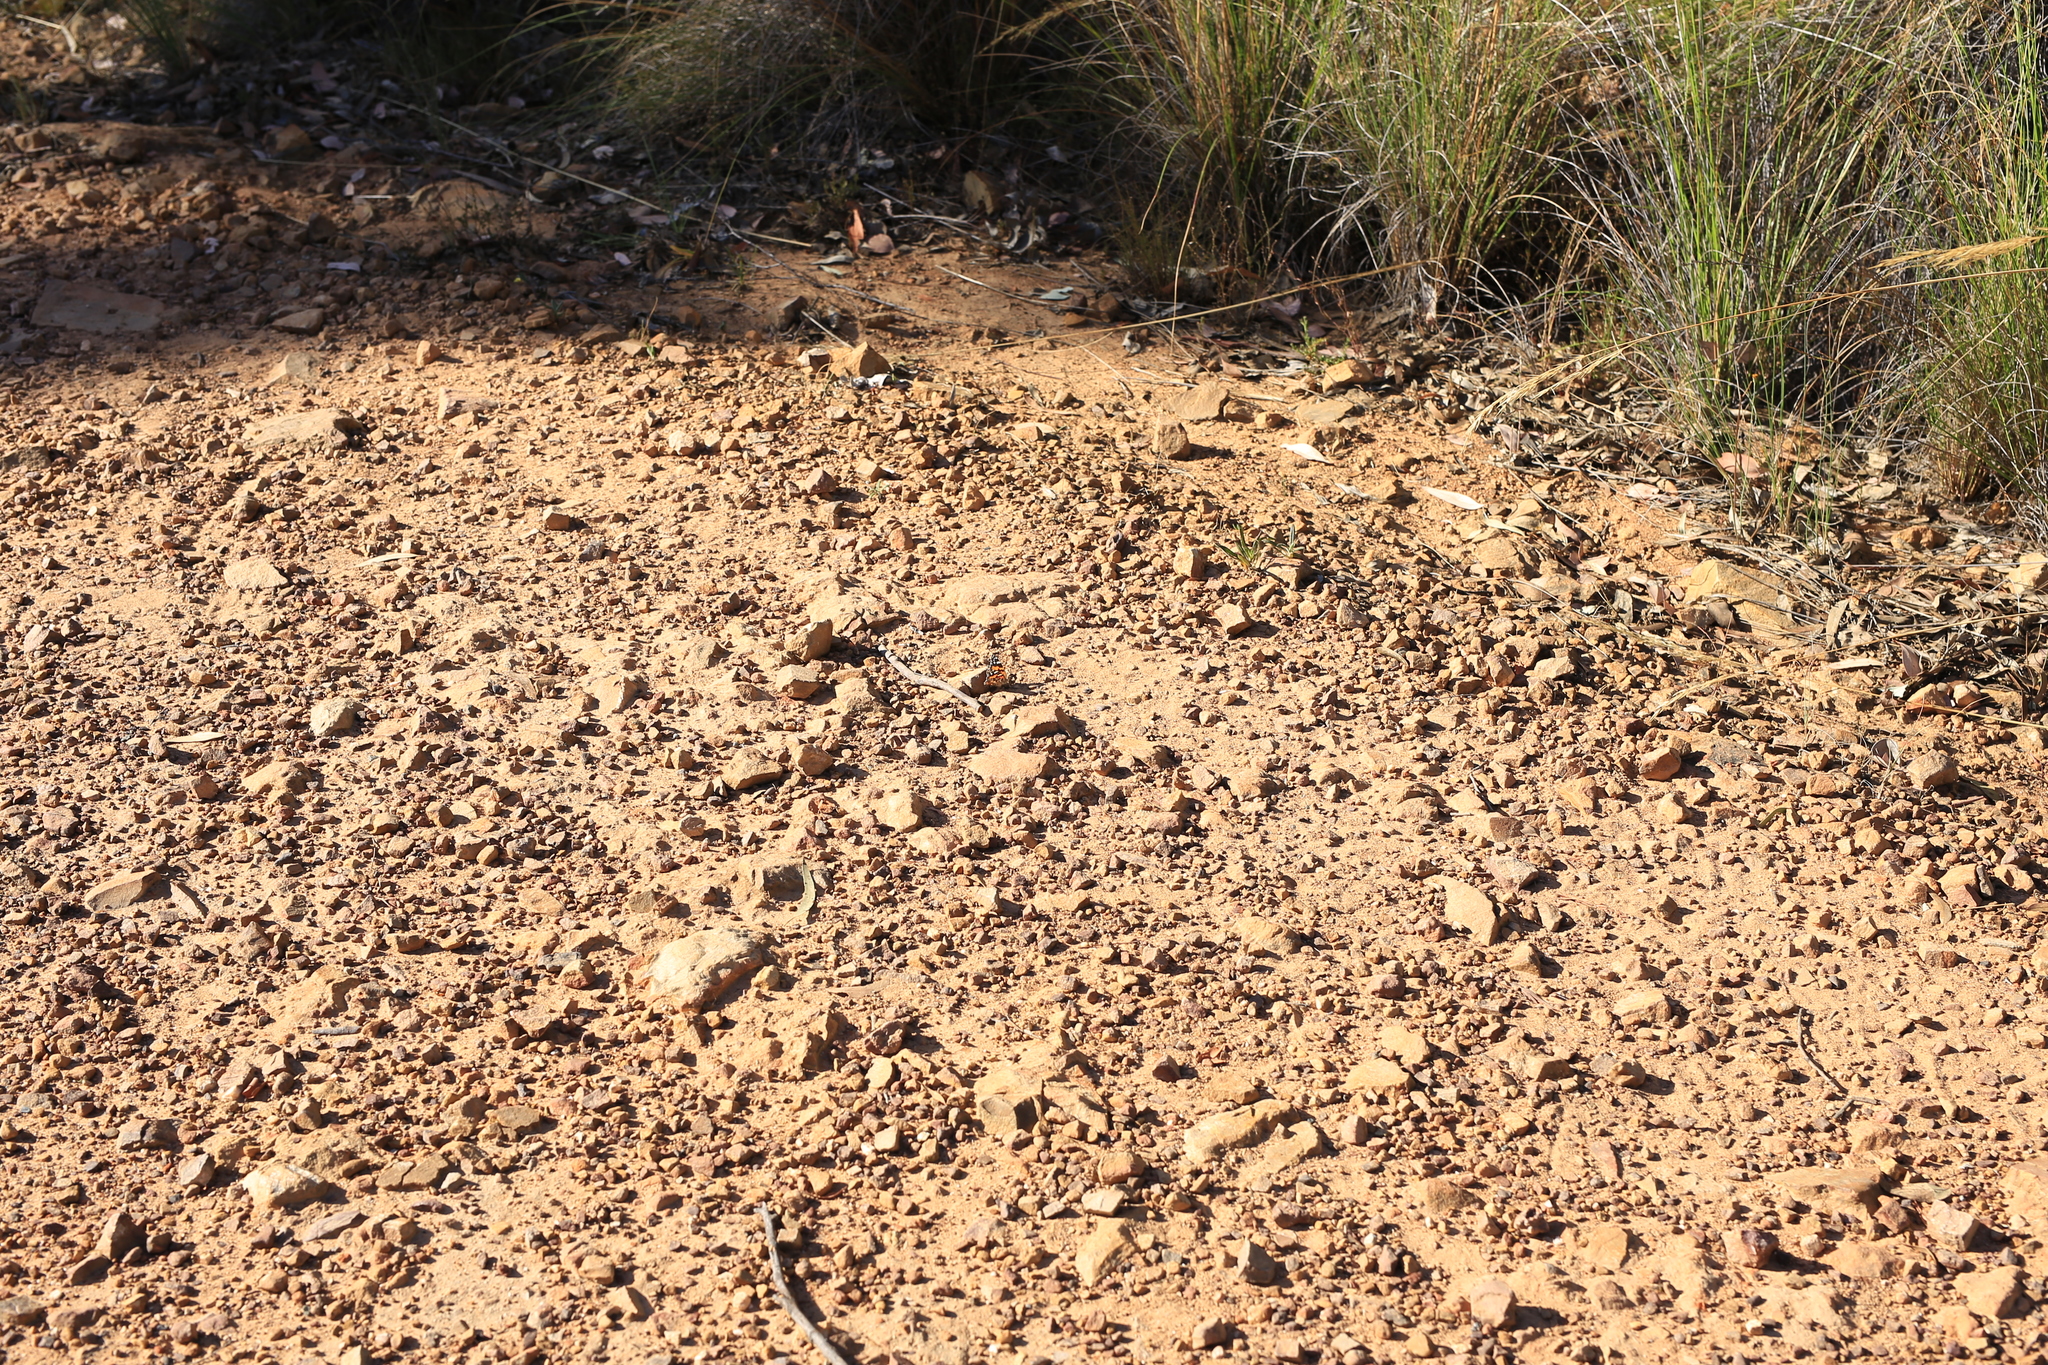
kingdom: Animalia
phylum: Arthropoda
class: Insecta
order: Lepidoptera
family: Nymphalidae
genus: Vanessa
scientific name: Vanessa kershawi
